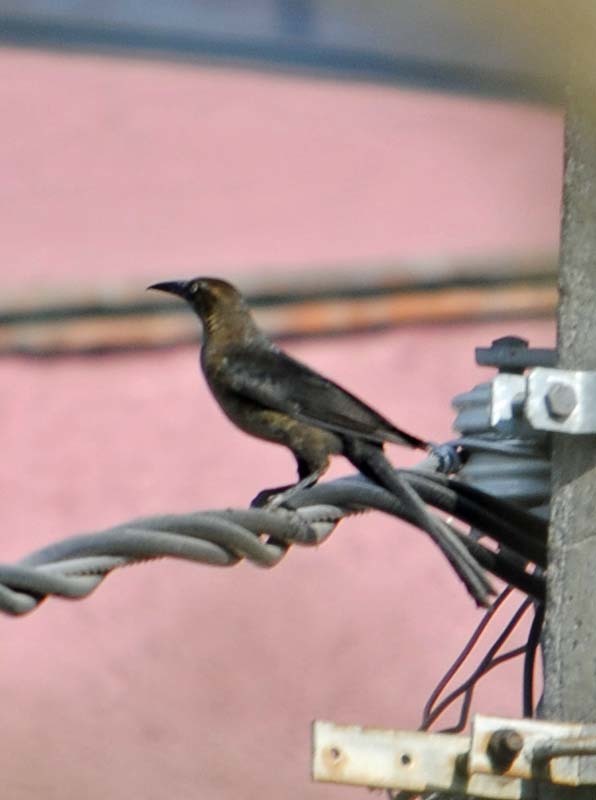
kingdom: Animalia
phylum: Chordata
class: Aves
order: Passeriformes
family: Icteridae
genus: Quiscalus
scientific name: Quiscalus mexicanus
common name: Great-tailed grackle
